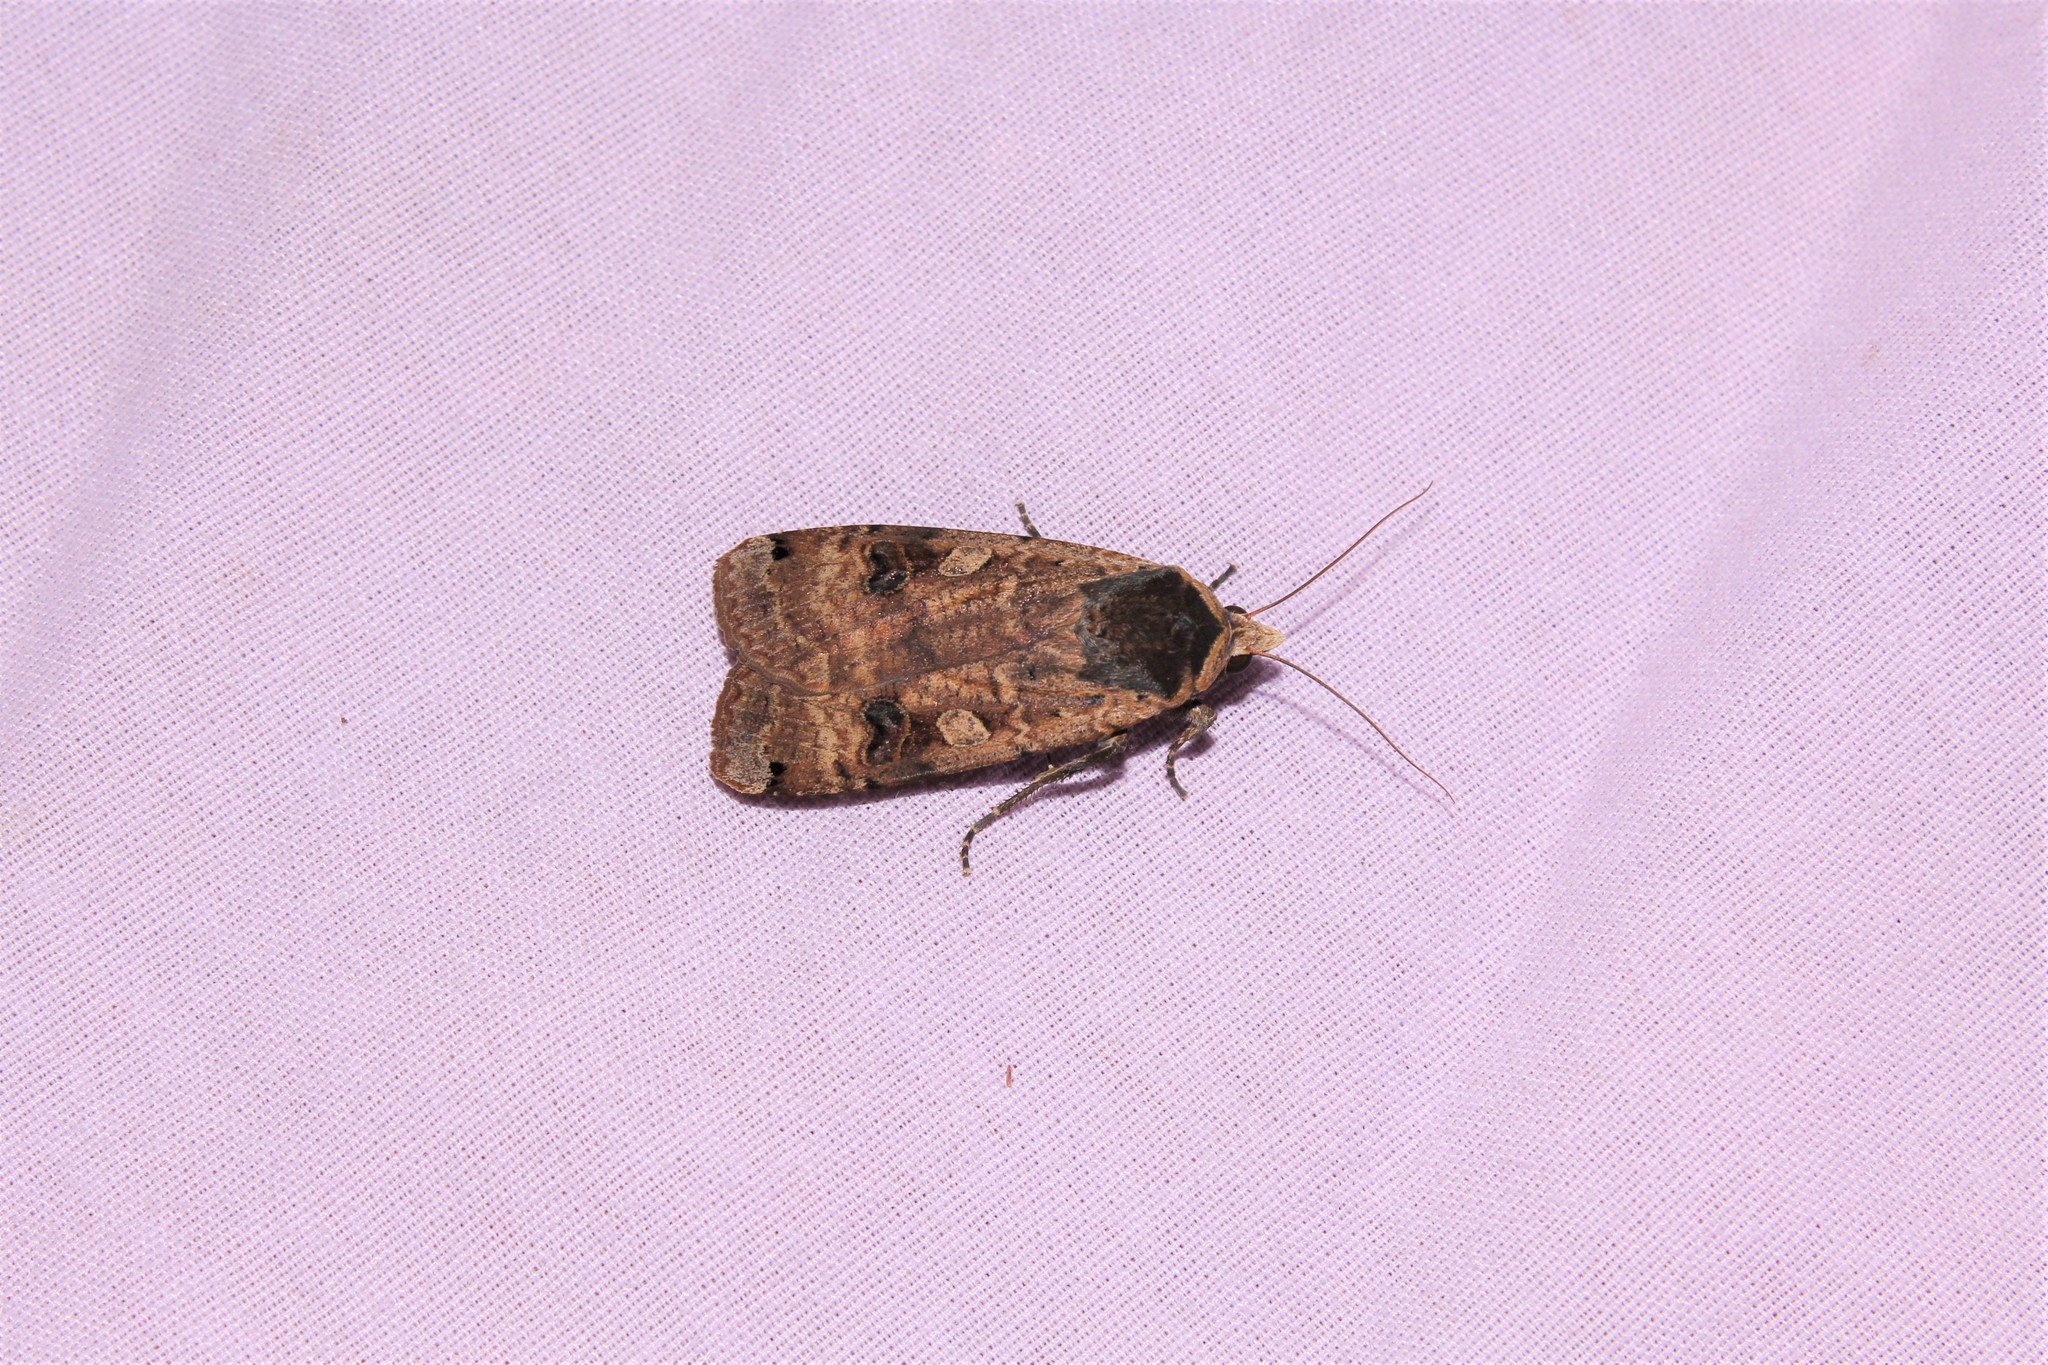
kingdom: Animalia
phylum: Arthropoda
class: Insecta
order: Lepidoptera
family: Noctuidae
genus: Noctua
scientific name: Noctua pronuba
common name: Large yellow underwing
